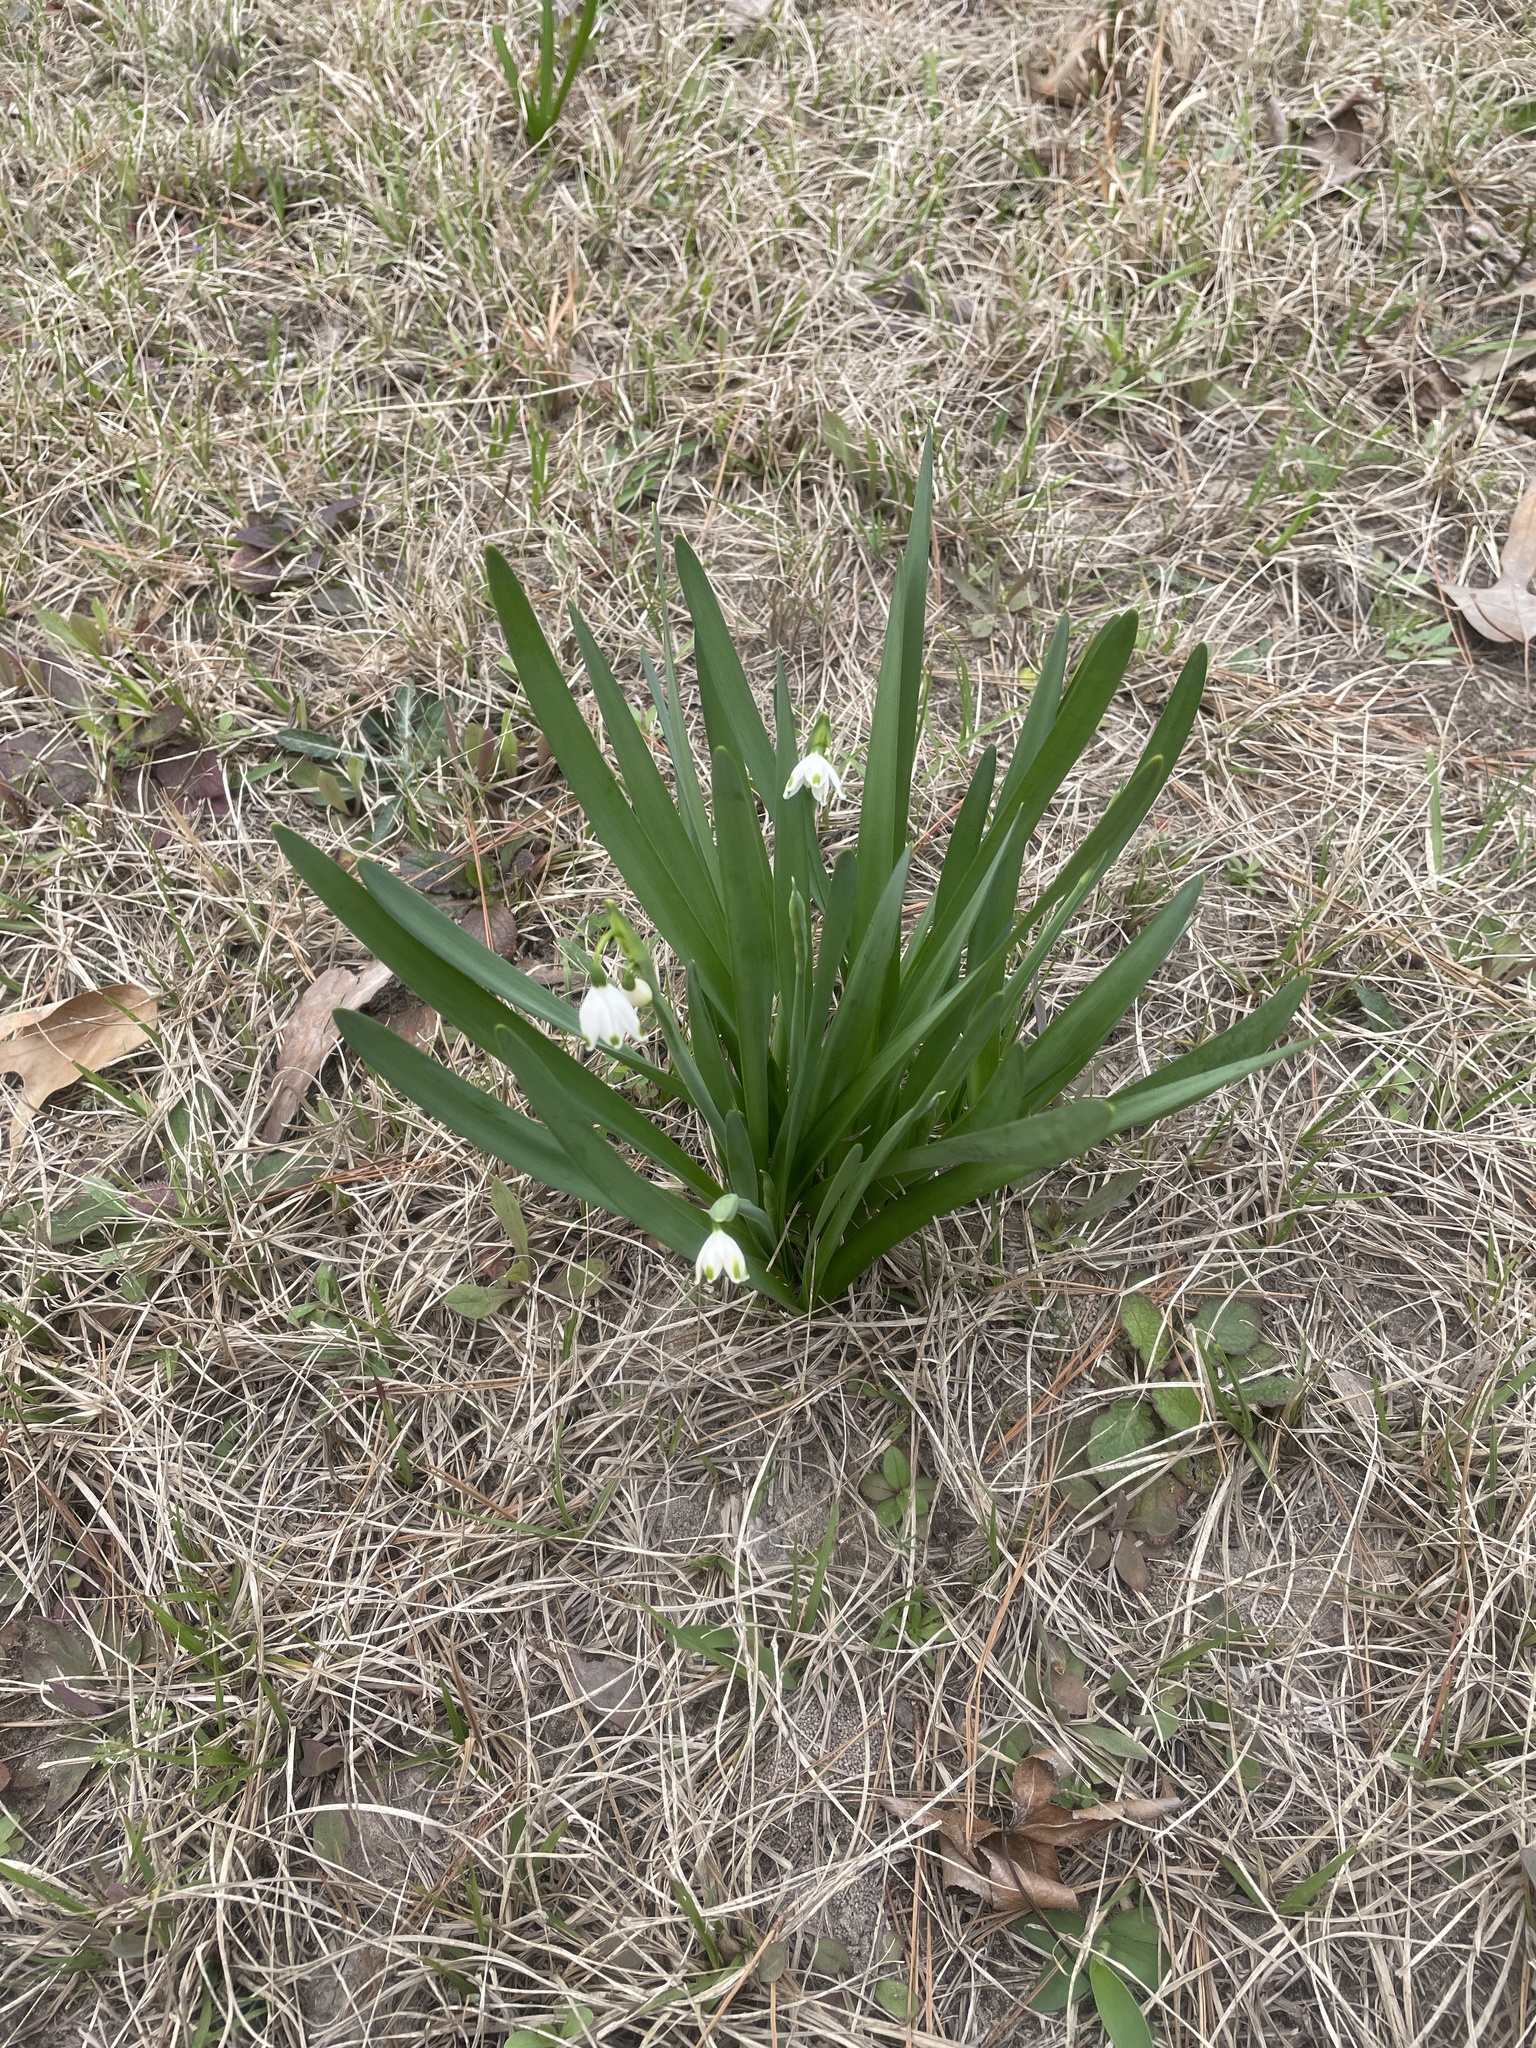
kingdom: Plantae
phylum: Tracheophyta
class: Liliopsida
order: Asparagales
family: Amaryllidaceae
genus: Leucojum
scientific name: Leucojum aestivum
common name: Summer snowflake
